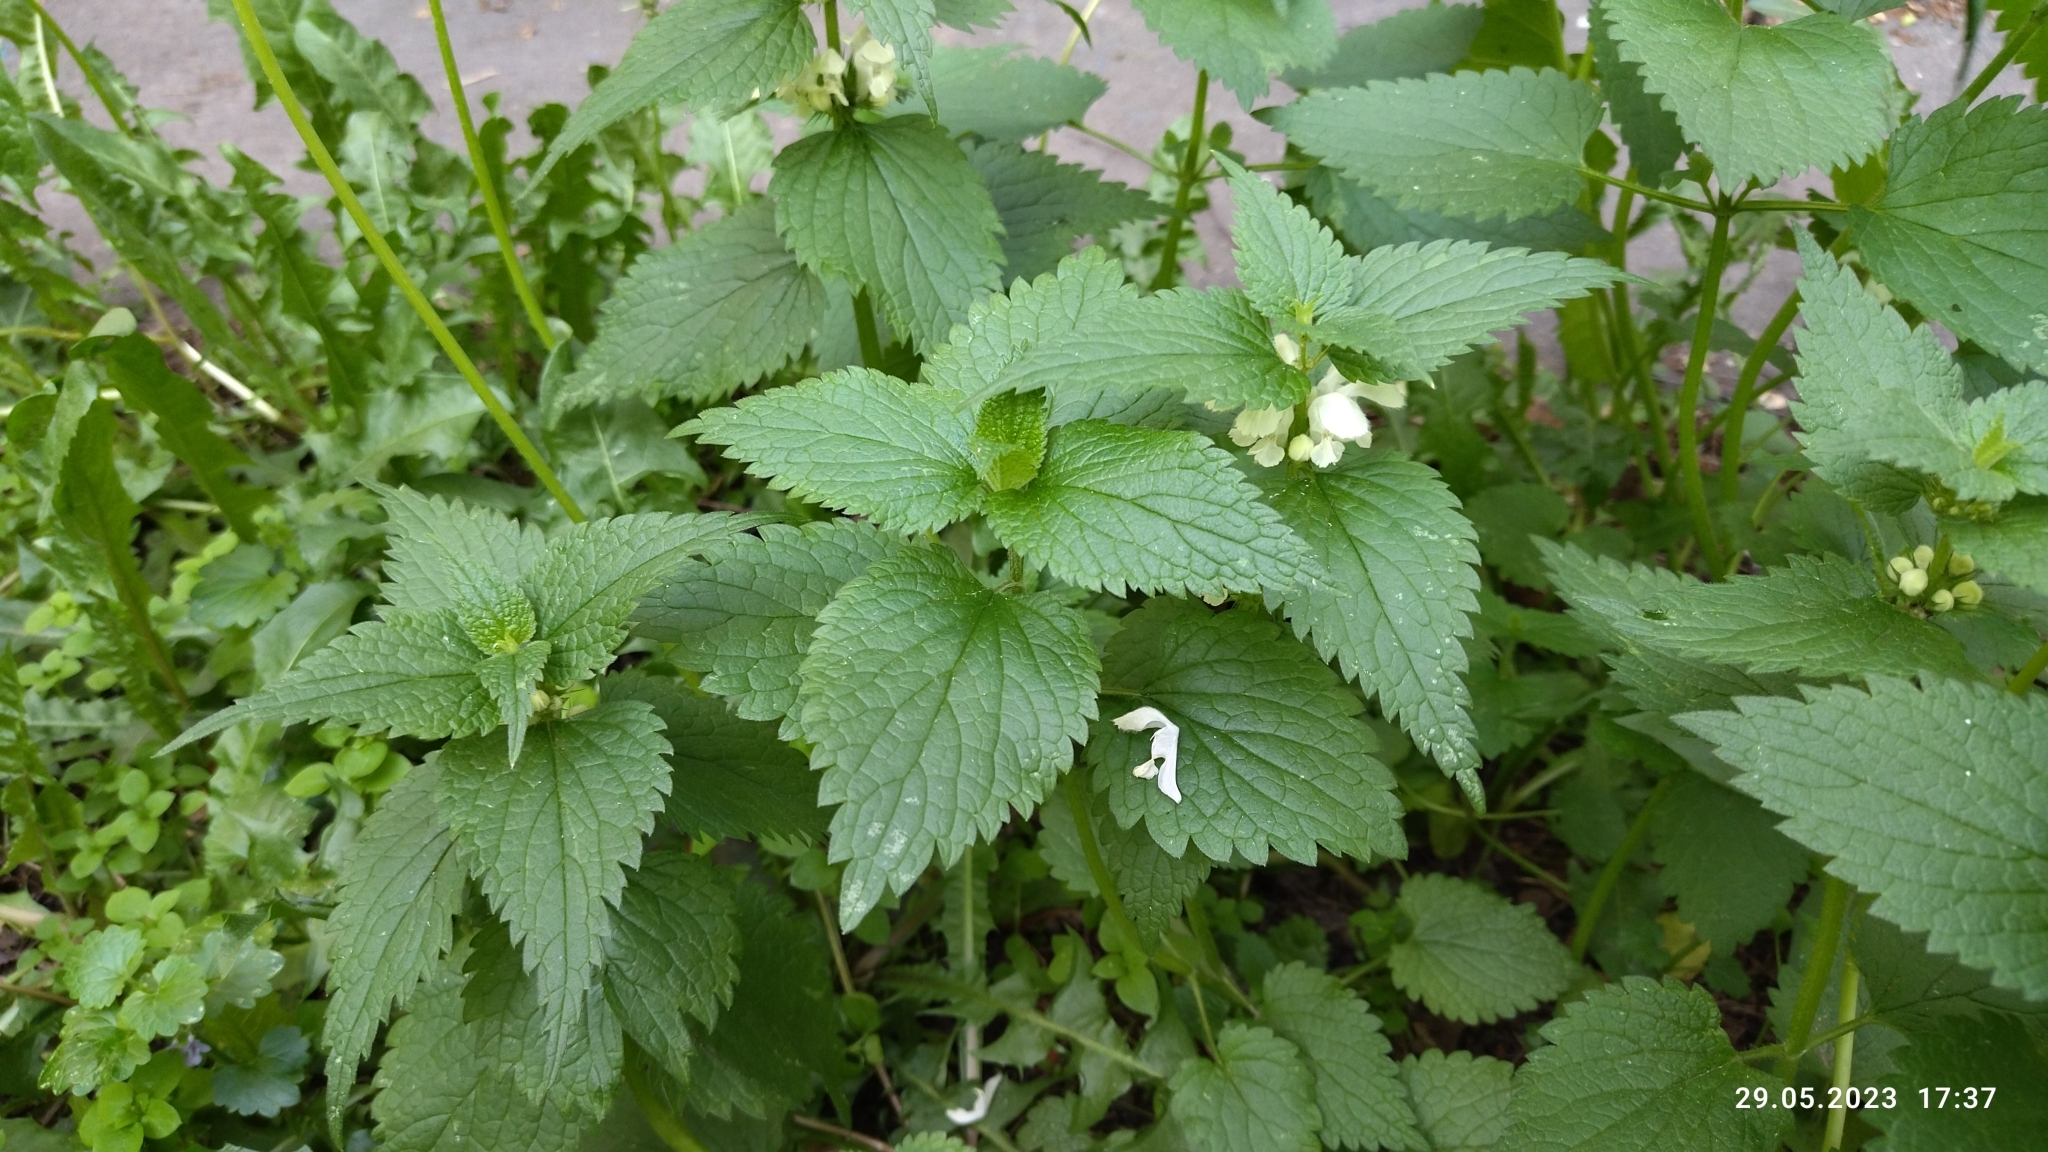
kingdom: Plantae
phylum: Tracheophyta
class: Magnoliopsida
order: Lamiales
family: Lamiaceae
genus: Lamium
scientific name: Lamium album
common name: White dead-nettle
